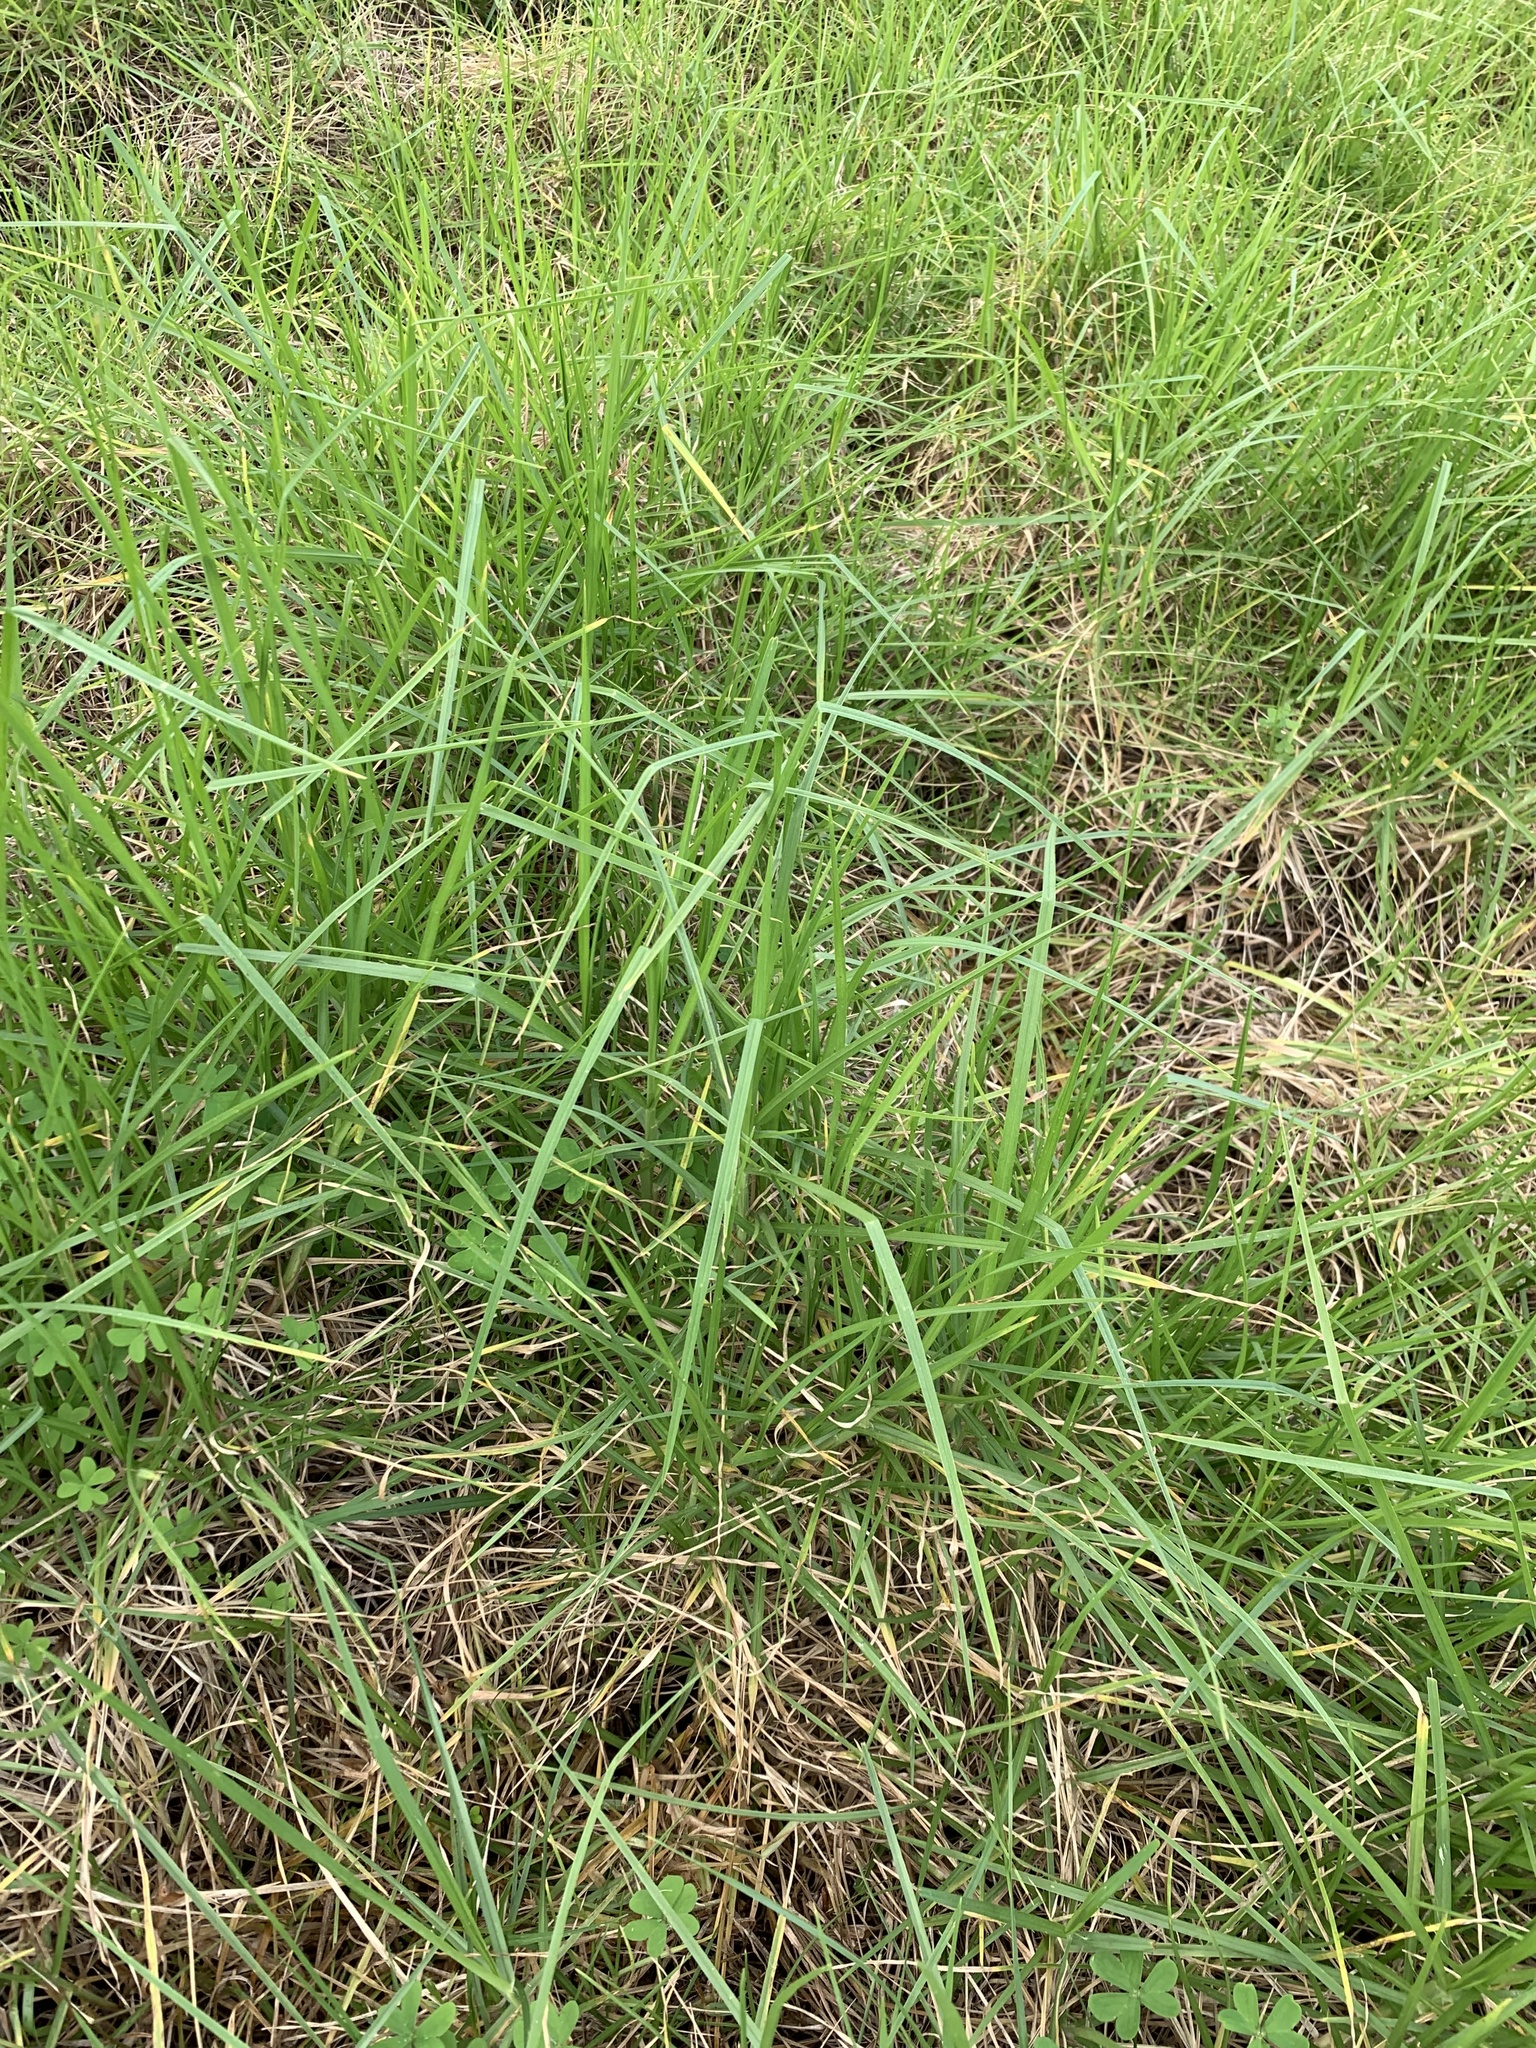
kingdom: Plantae
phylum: Tracheophyta
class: Liliopsida
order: Poales
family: Poaceae
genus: Cenchrus
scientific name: Cenchrus clandestinus
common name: Kikuyugrass
